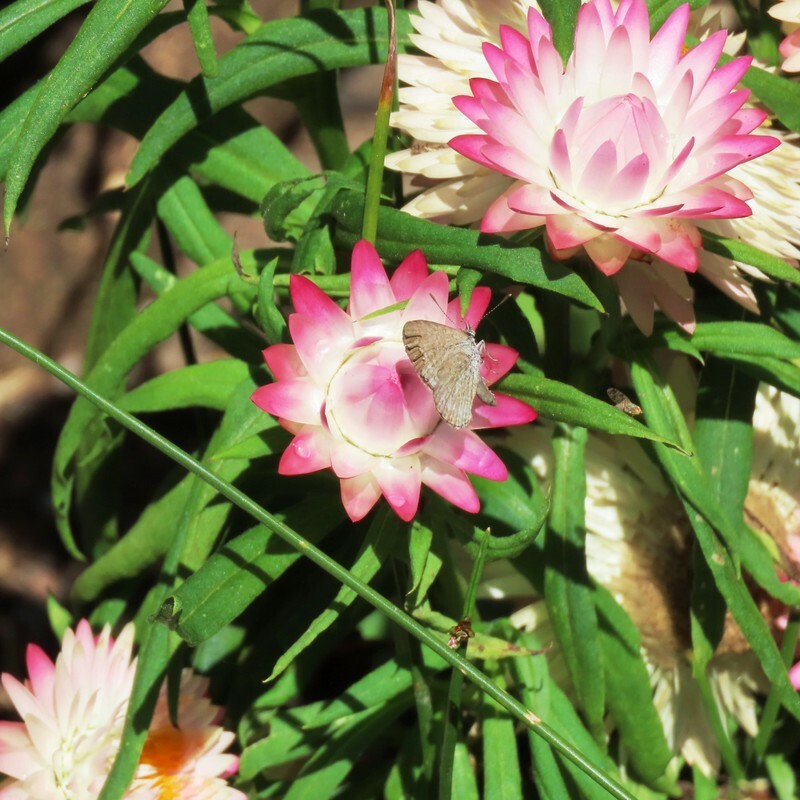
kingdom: Animalia
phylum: Arthropoda
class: Insecta
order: Lepidoptera
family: Lycaenidae
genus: Zizina
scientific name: Zizina otis
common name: Lesser grass blue
